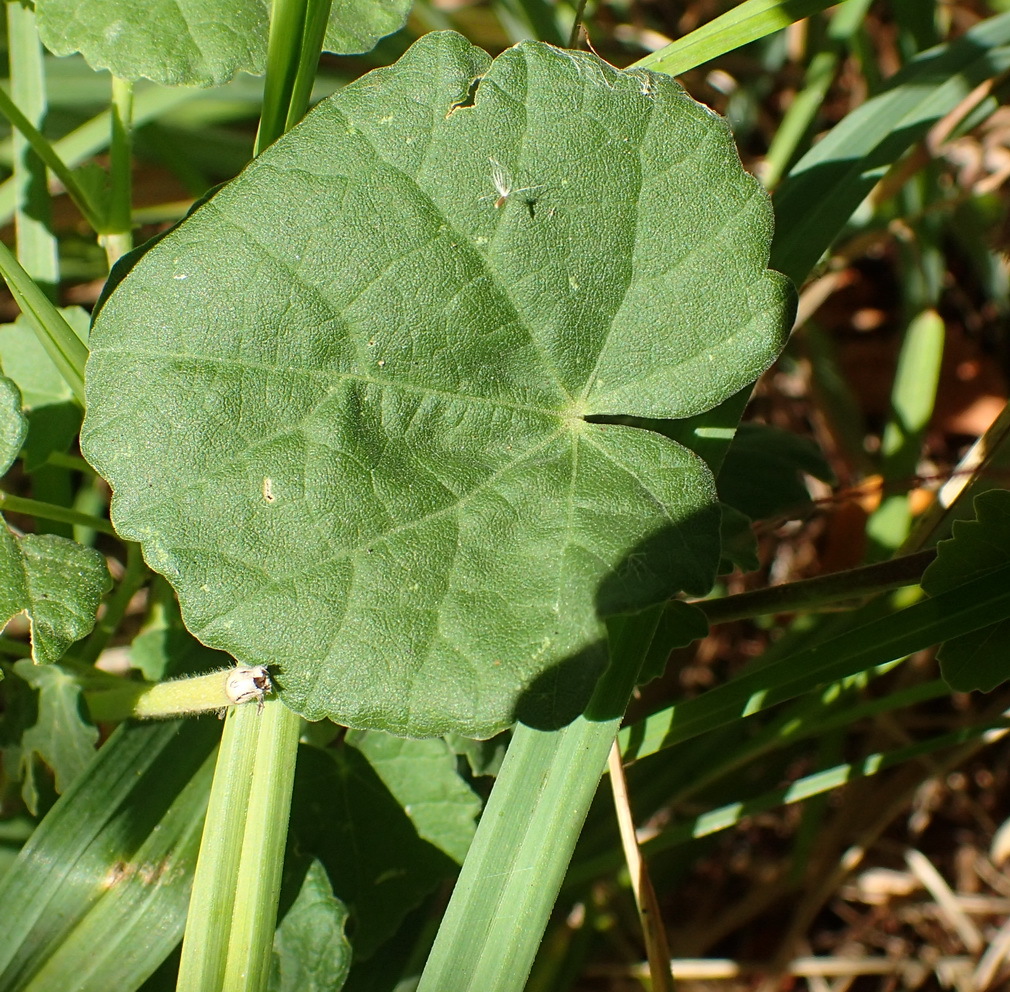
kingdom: Plantae
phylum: Tracheophyta
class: Magnoliopsida
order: Malvales
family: Malvaceae
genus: Abutilon
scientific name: Abutilon sonneratianum
